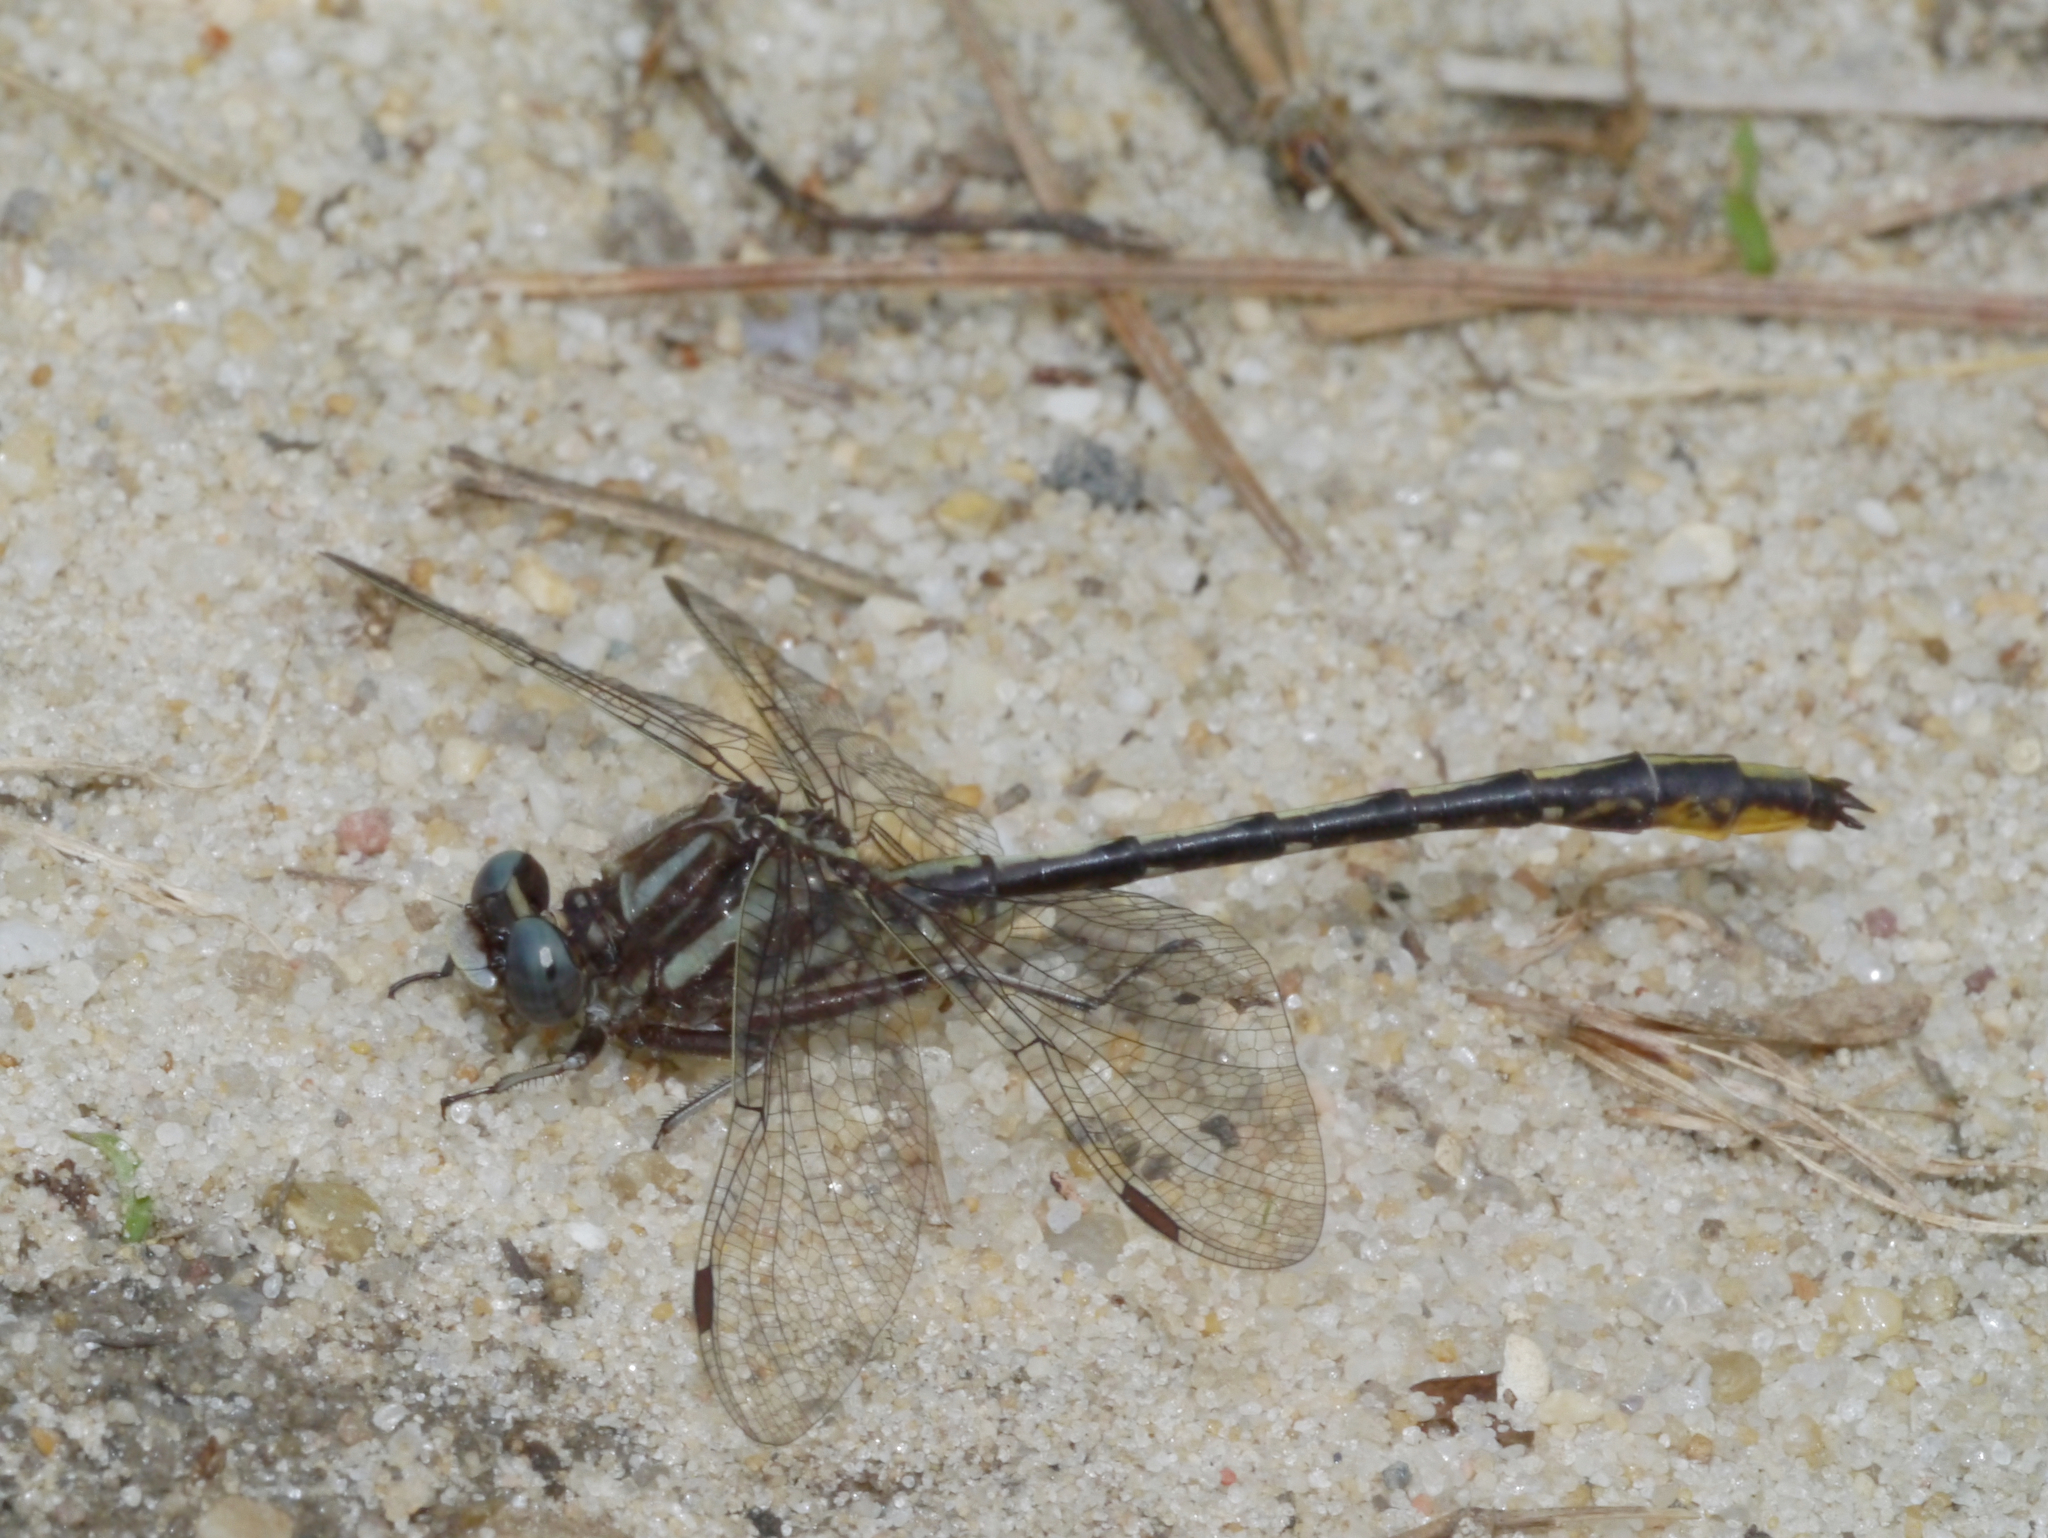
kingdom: Animalia
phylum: Arthropoda
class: Insecta
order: Odonata
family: Gomphidae
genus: Phanogomphus
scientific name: Phanogomphus exilis
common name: Lancet clubtail
